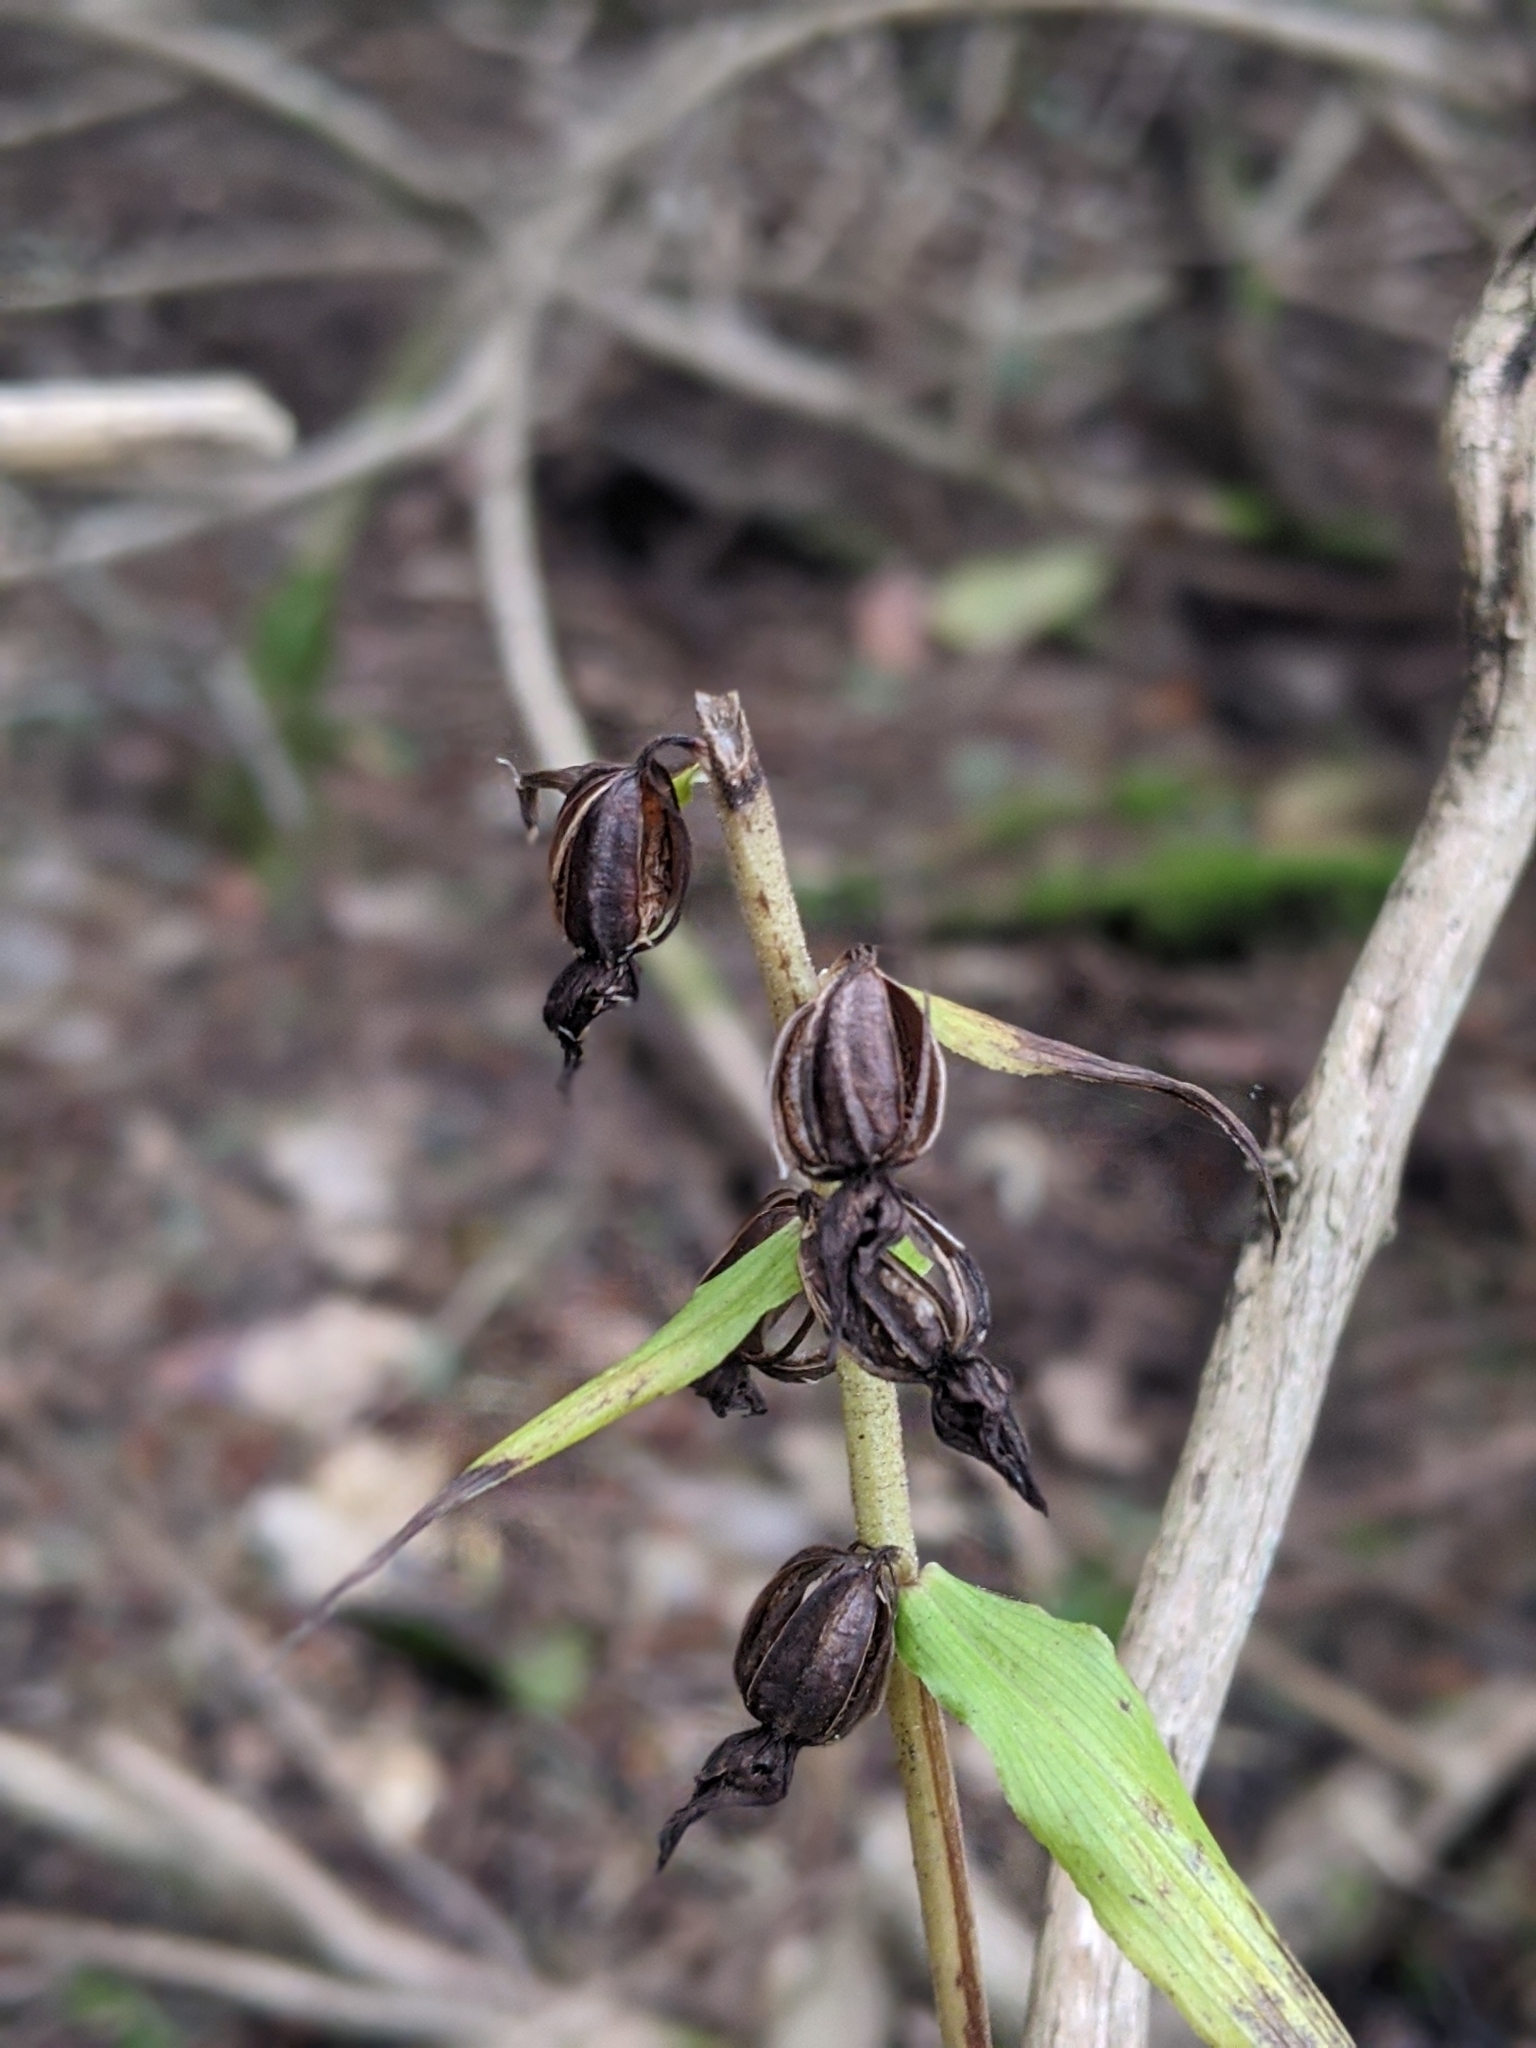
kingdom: Plantae
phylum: Tracheophyta
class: Liliopsida
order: Asparagales
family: Orchidaceae
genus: Epipactis
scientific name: Epipactis helleborine
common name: Broad-leaved helleborine
